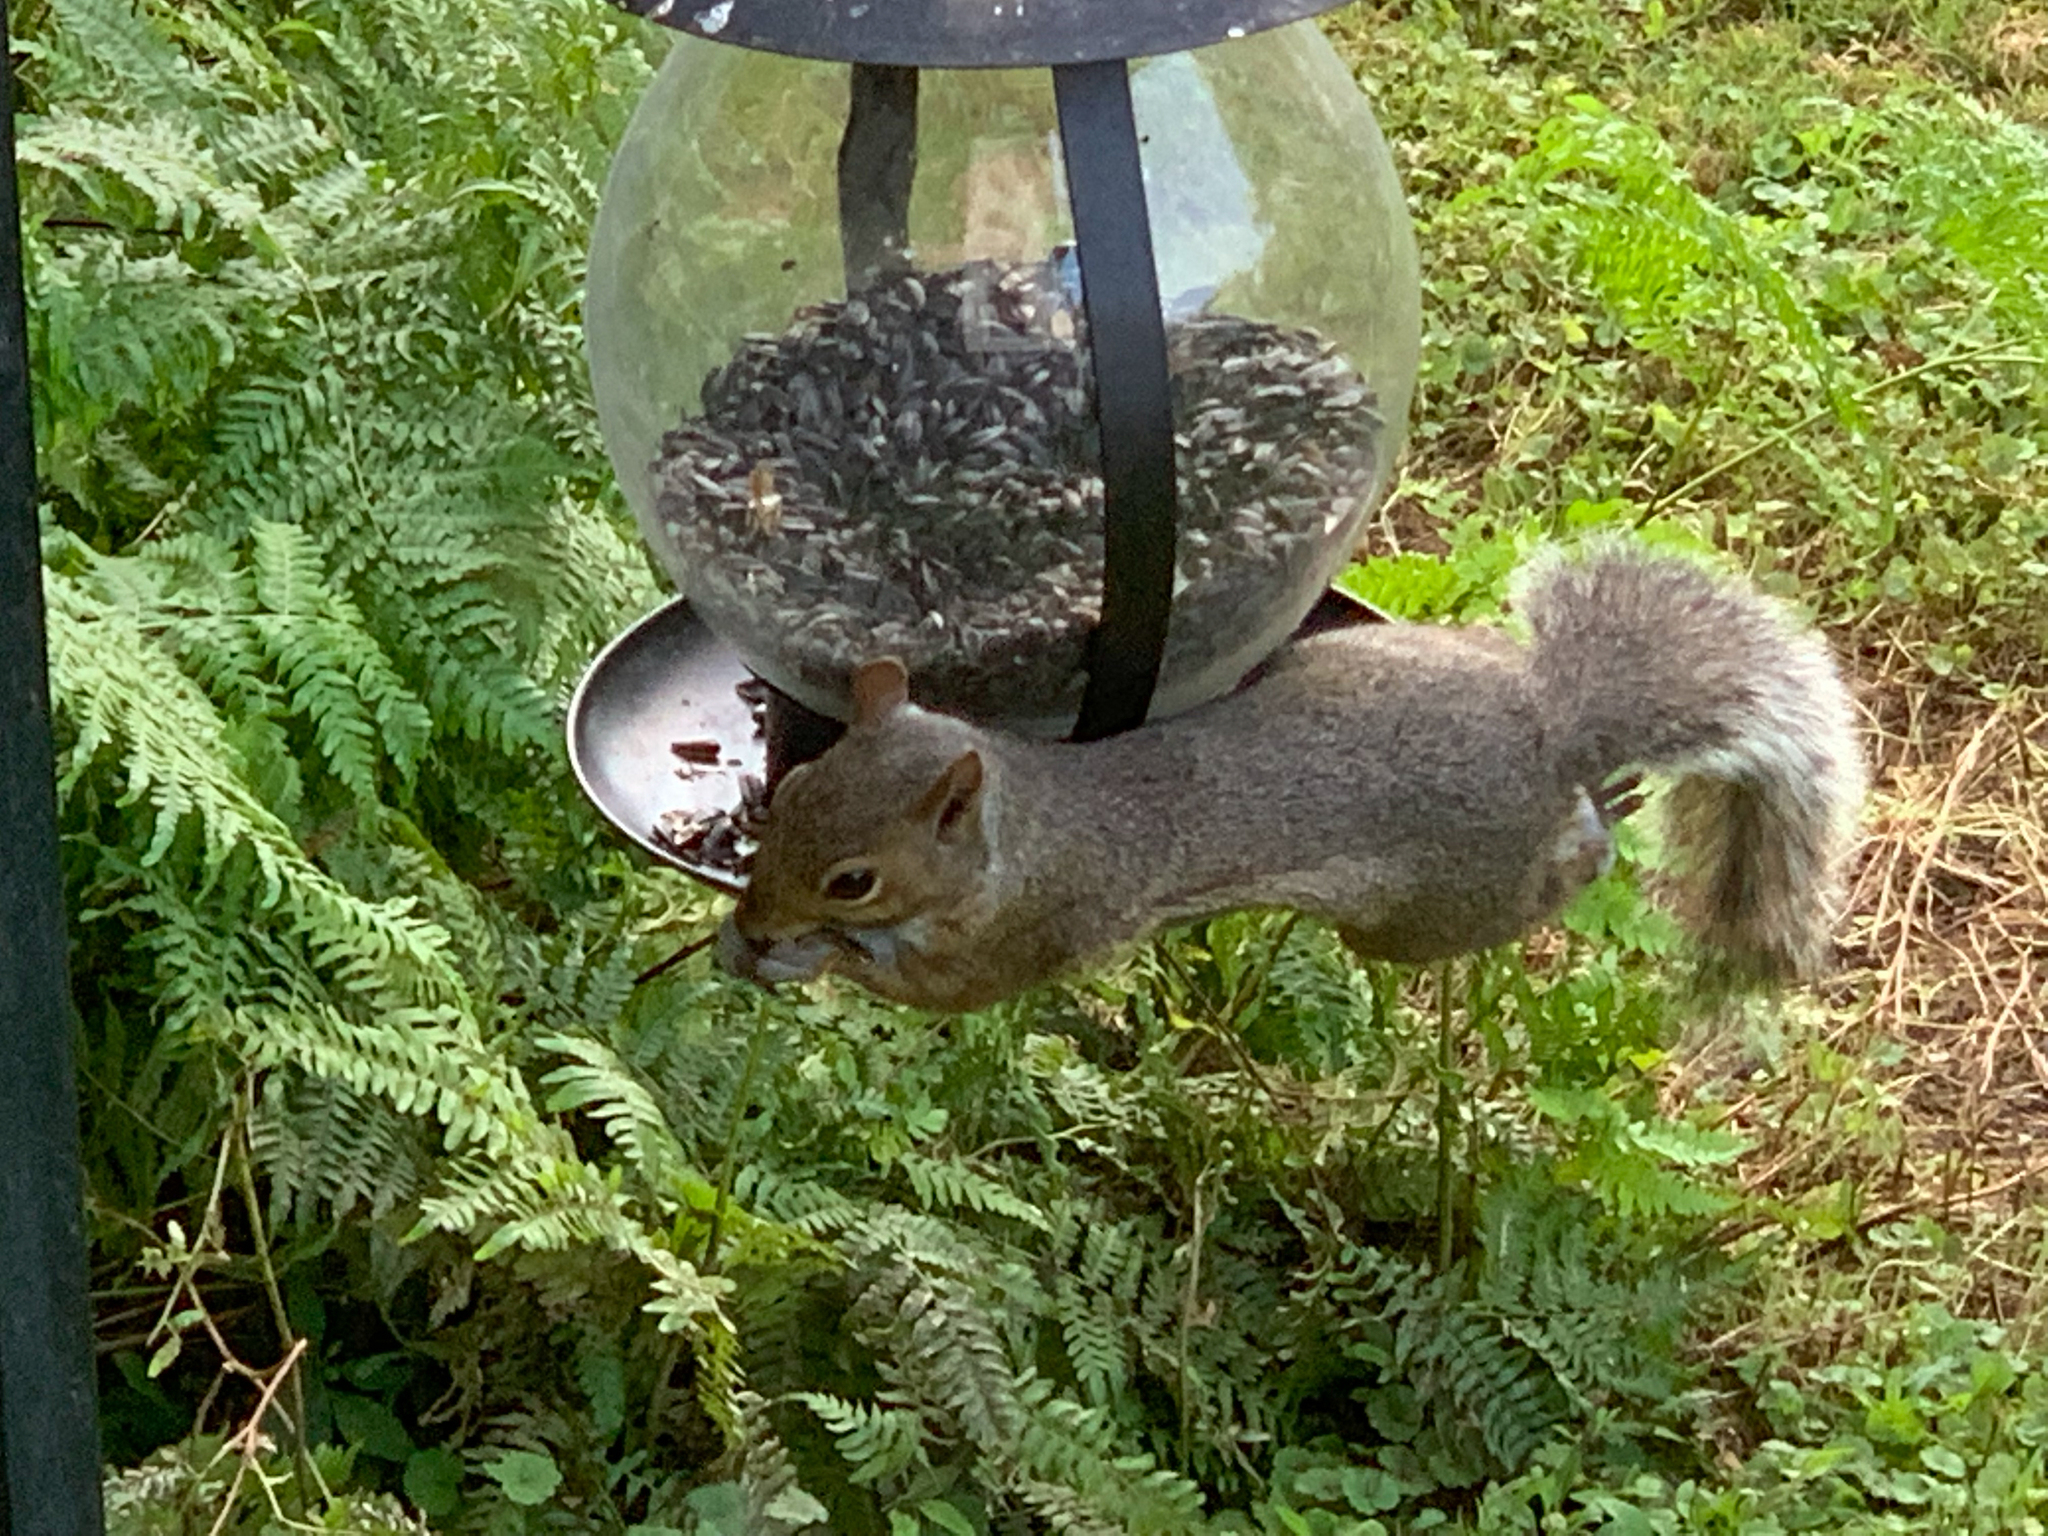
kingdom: Animalia
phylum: Chordata
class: Mammalia
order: Rodentia
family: Sciuridae
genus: Sciurus
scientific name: Sciurus carolinensis
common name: Eastern gray squirrel
